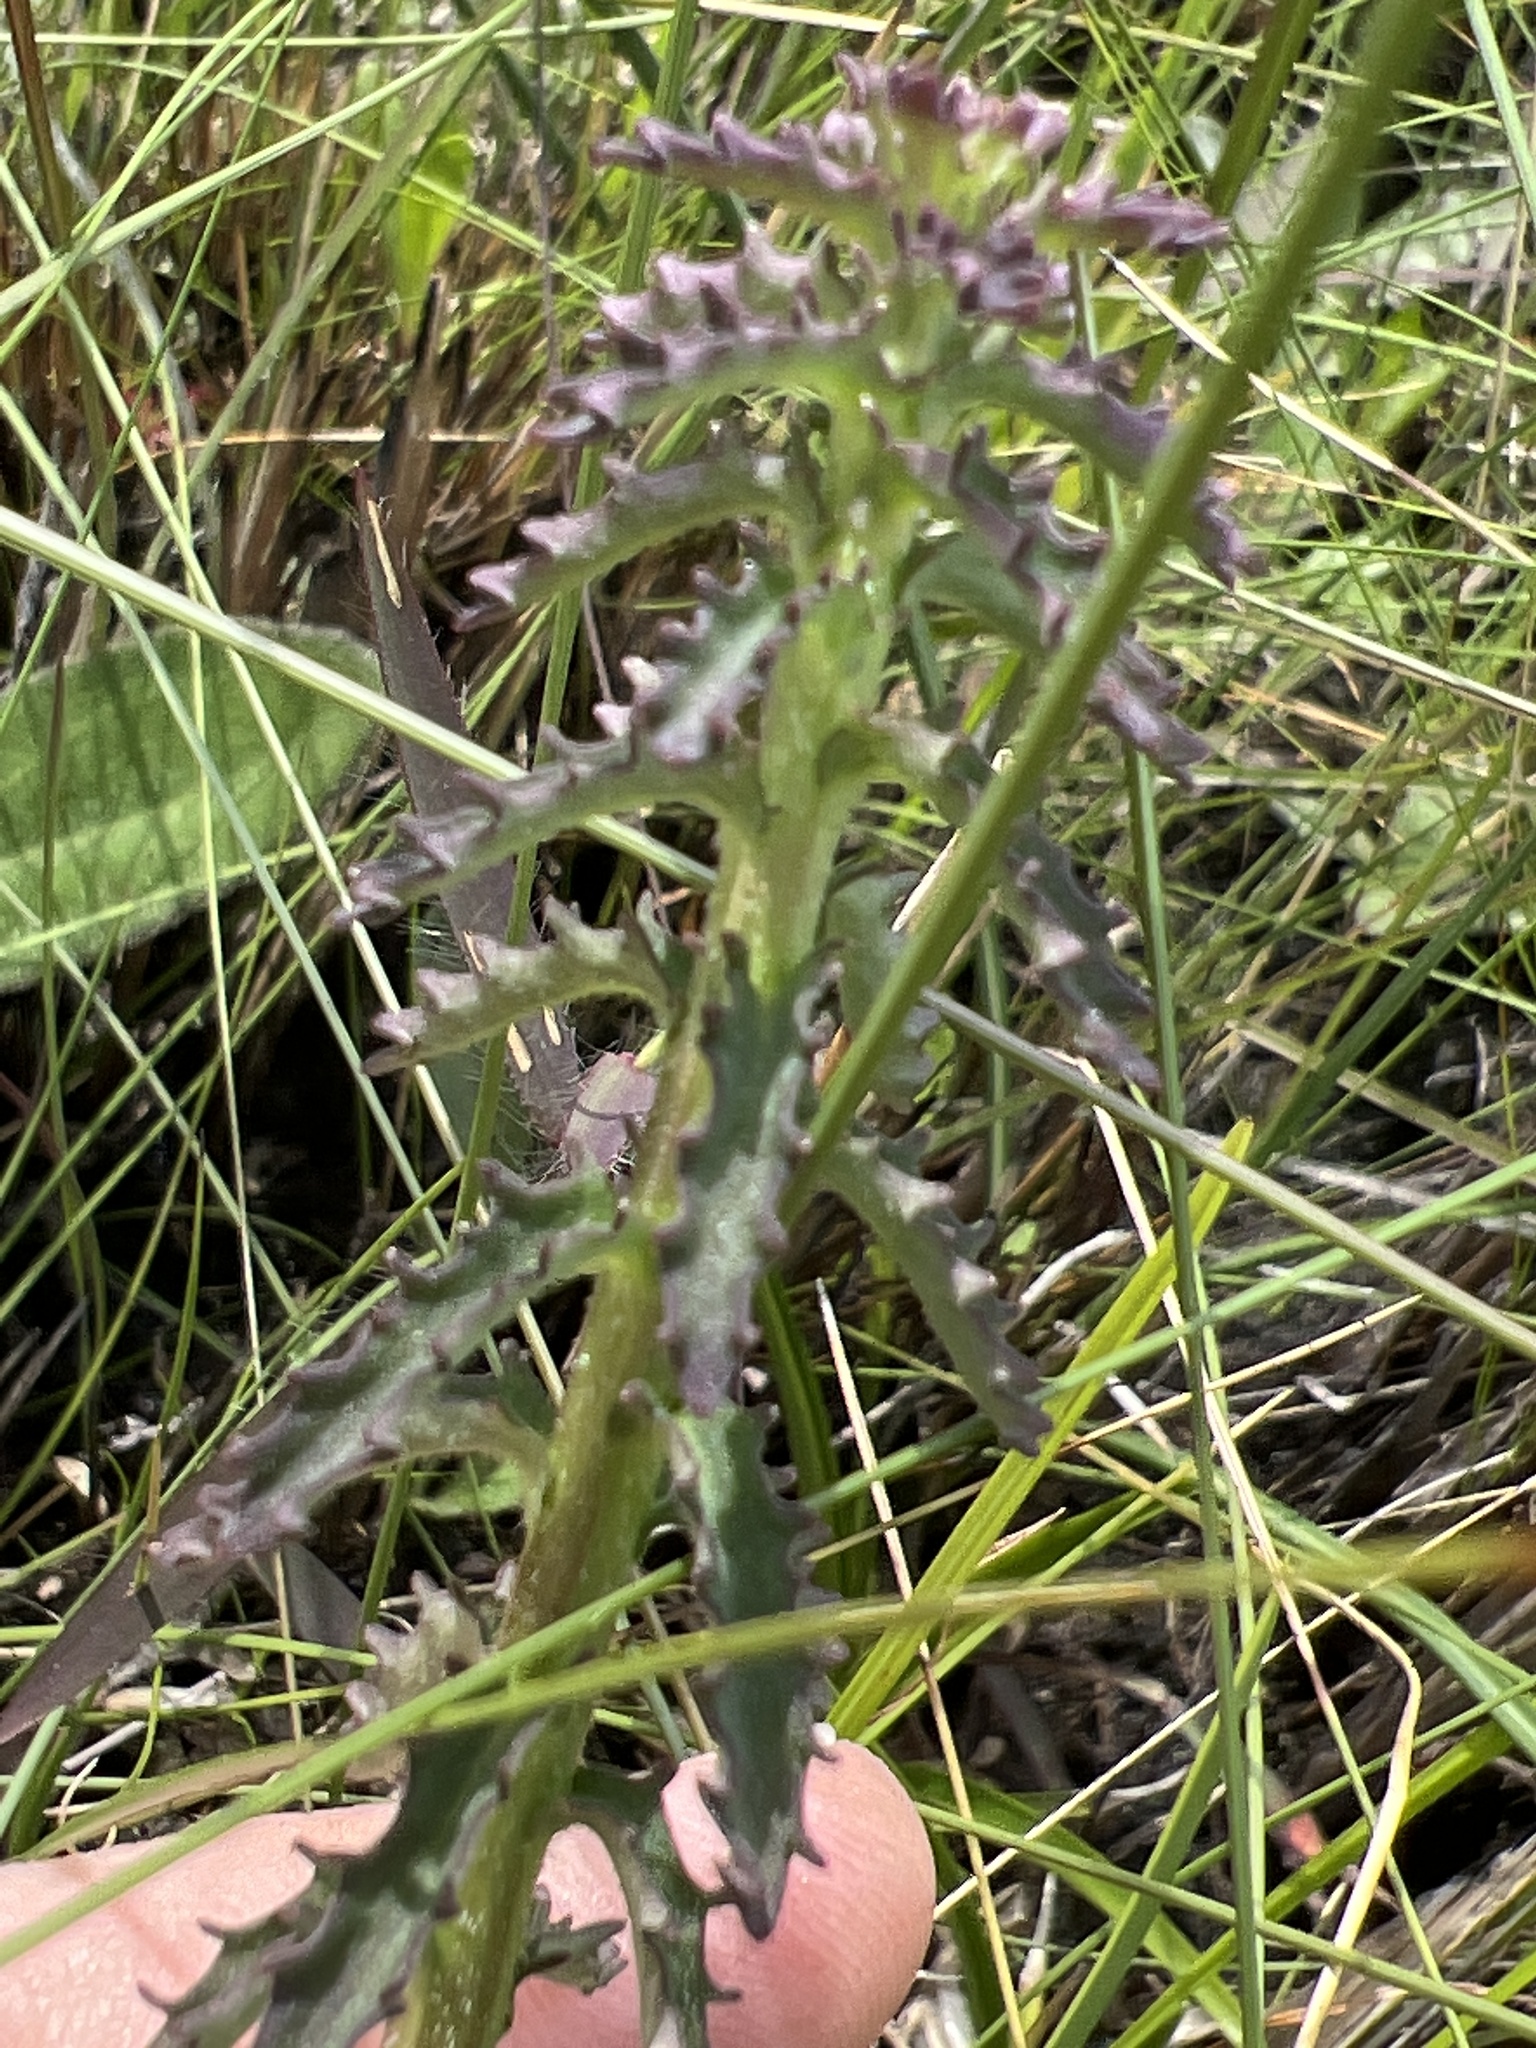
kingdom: Plantae
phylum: Tracheophyta
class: Magnoliopsida
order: Asterales
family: Campanulaceae
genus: Lobelia
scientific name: Lobelia brevifolia
